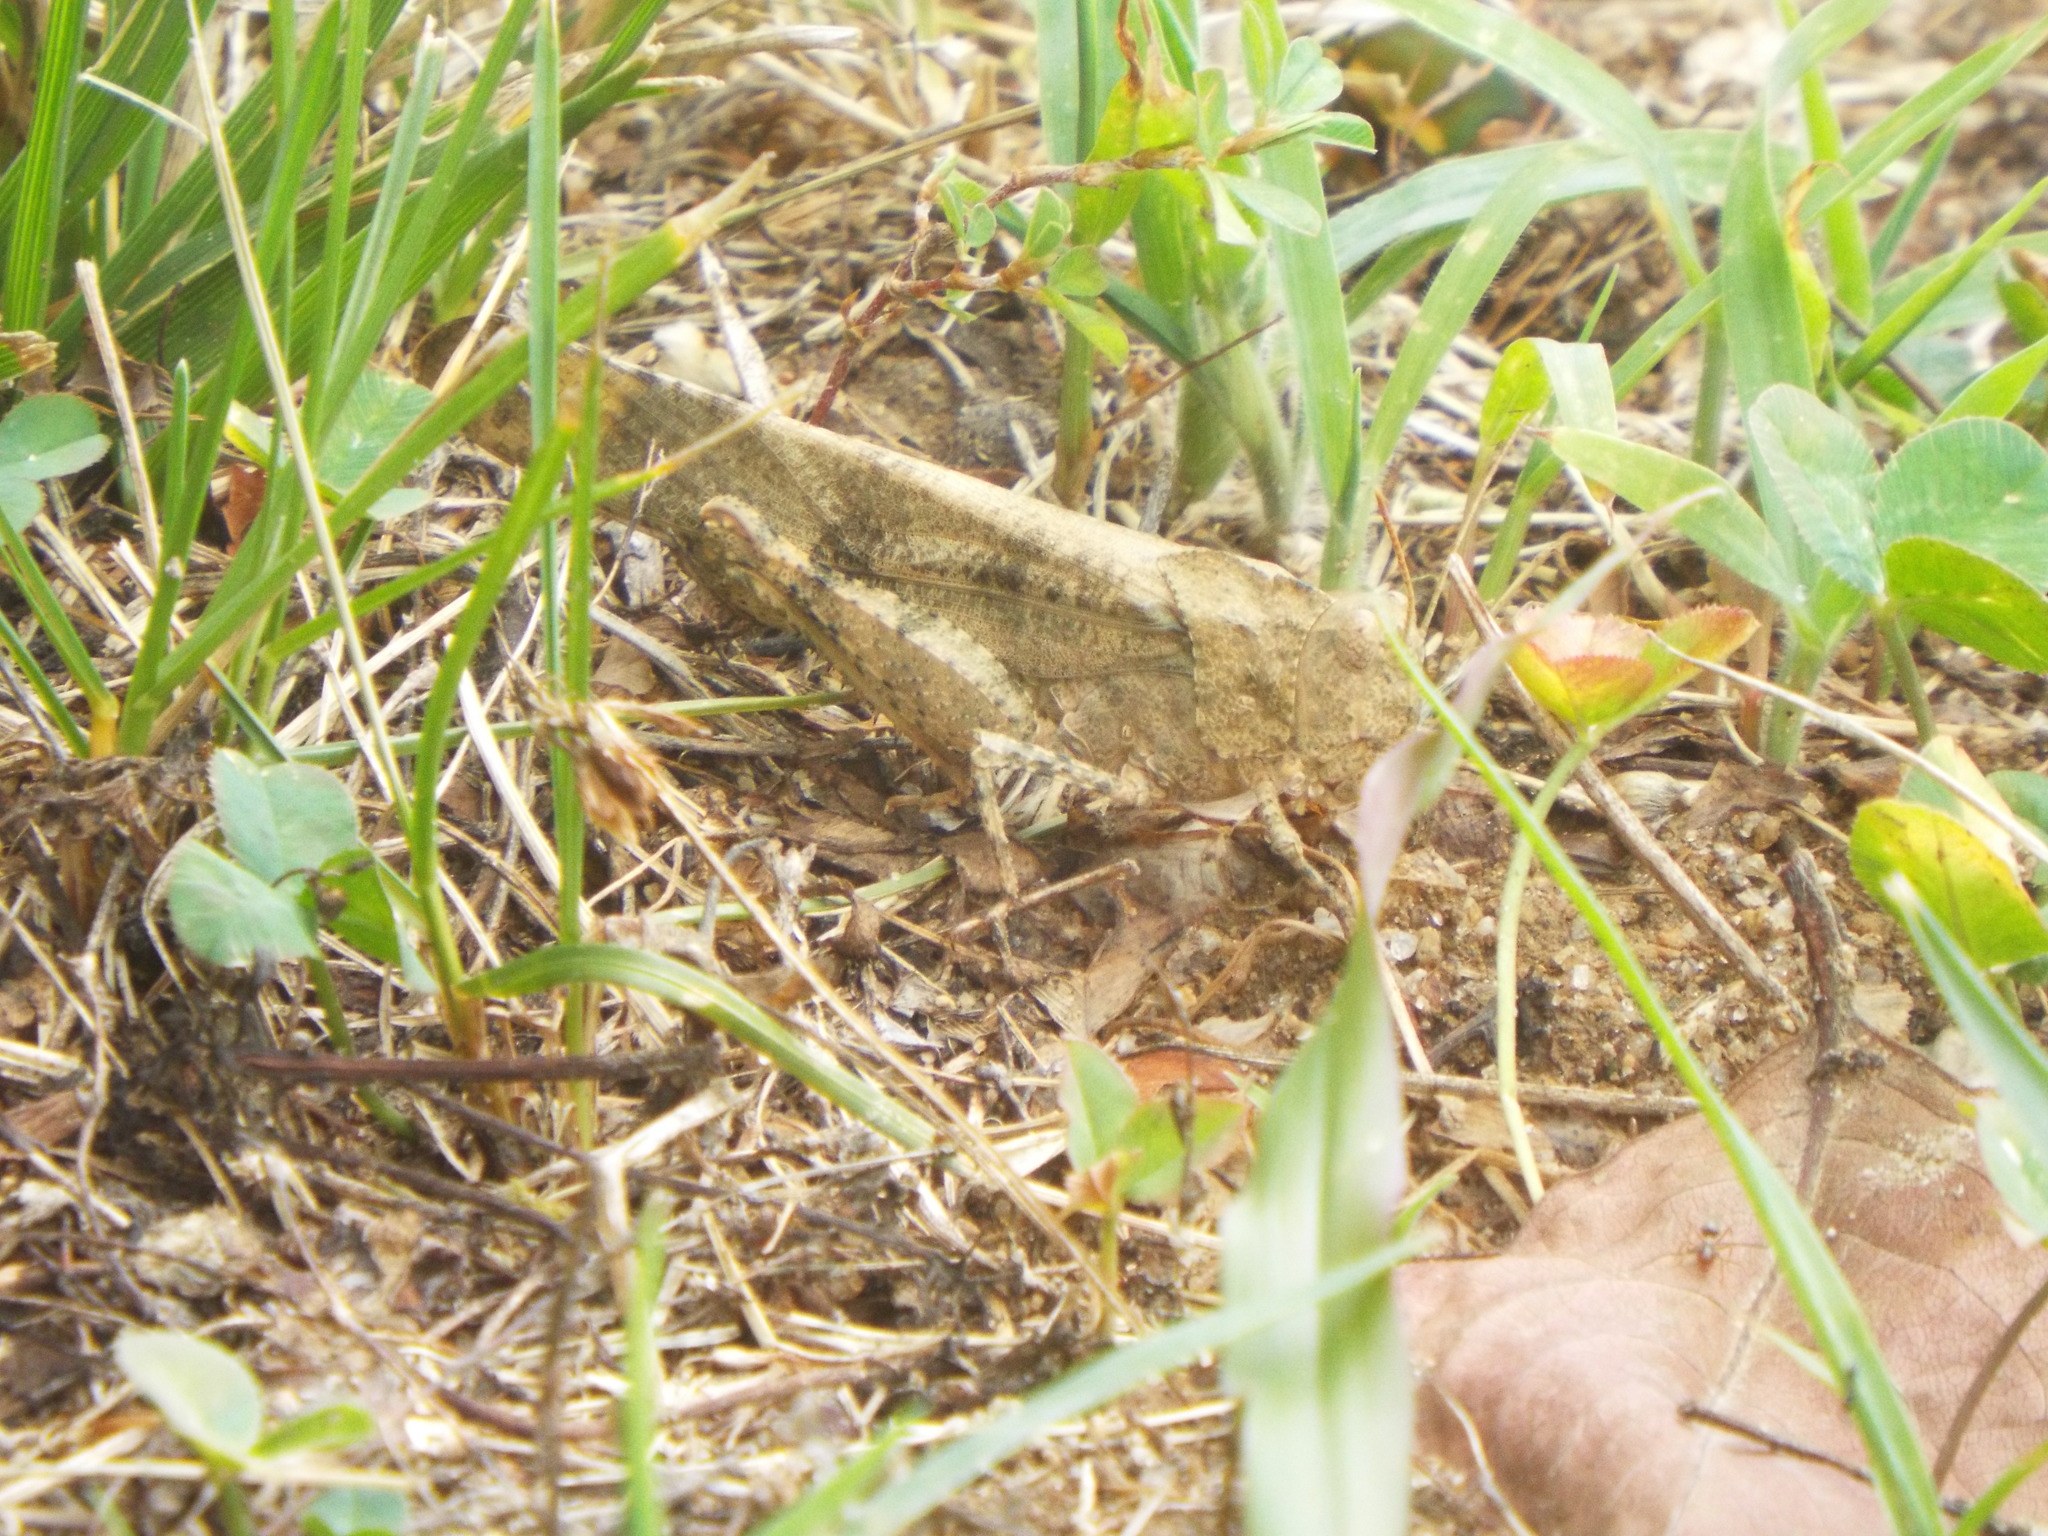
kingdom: Animalia
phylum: Arthropoda
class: Insecta
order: Orthoptera
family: Acrididae
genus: Dissosteira
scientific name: Dissosteira carolina
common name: Carolina grasshopper
